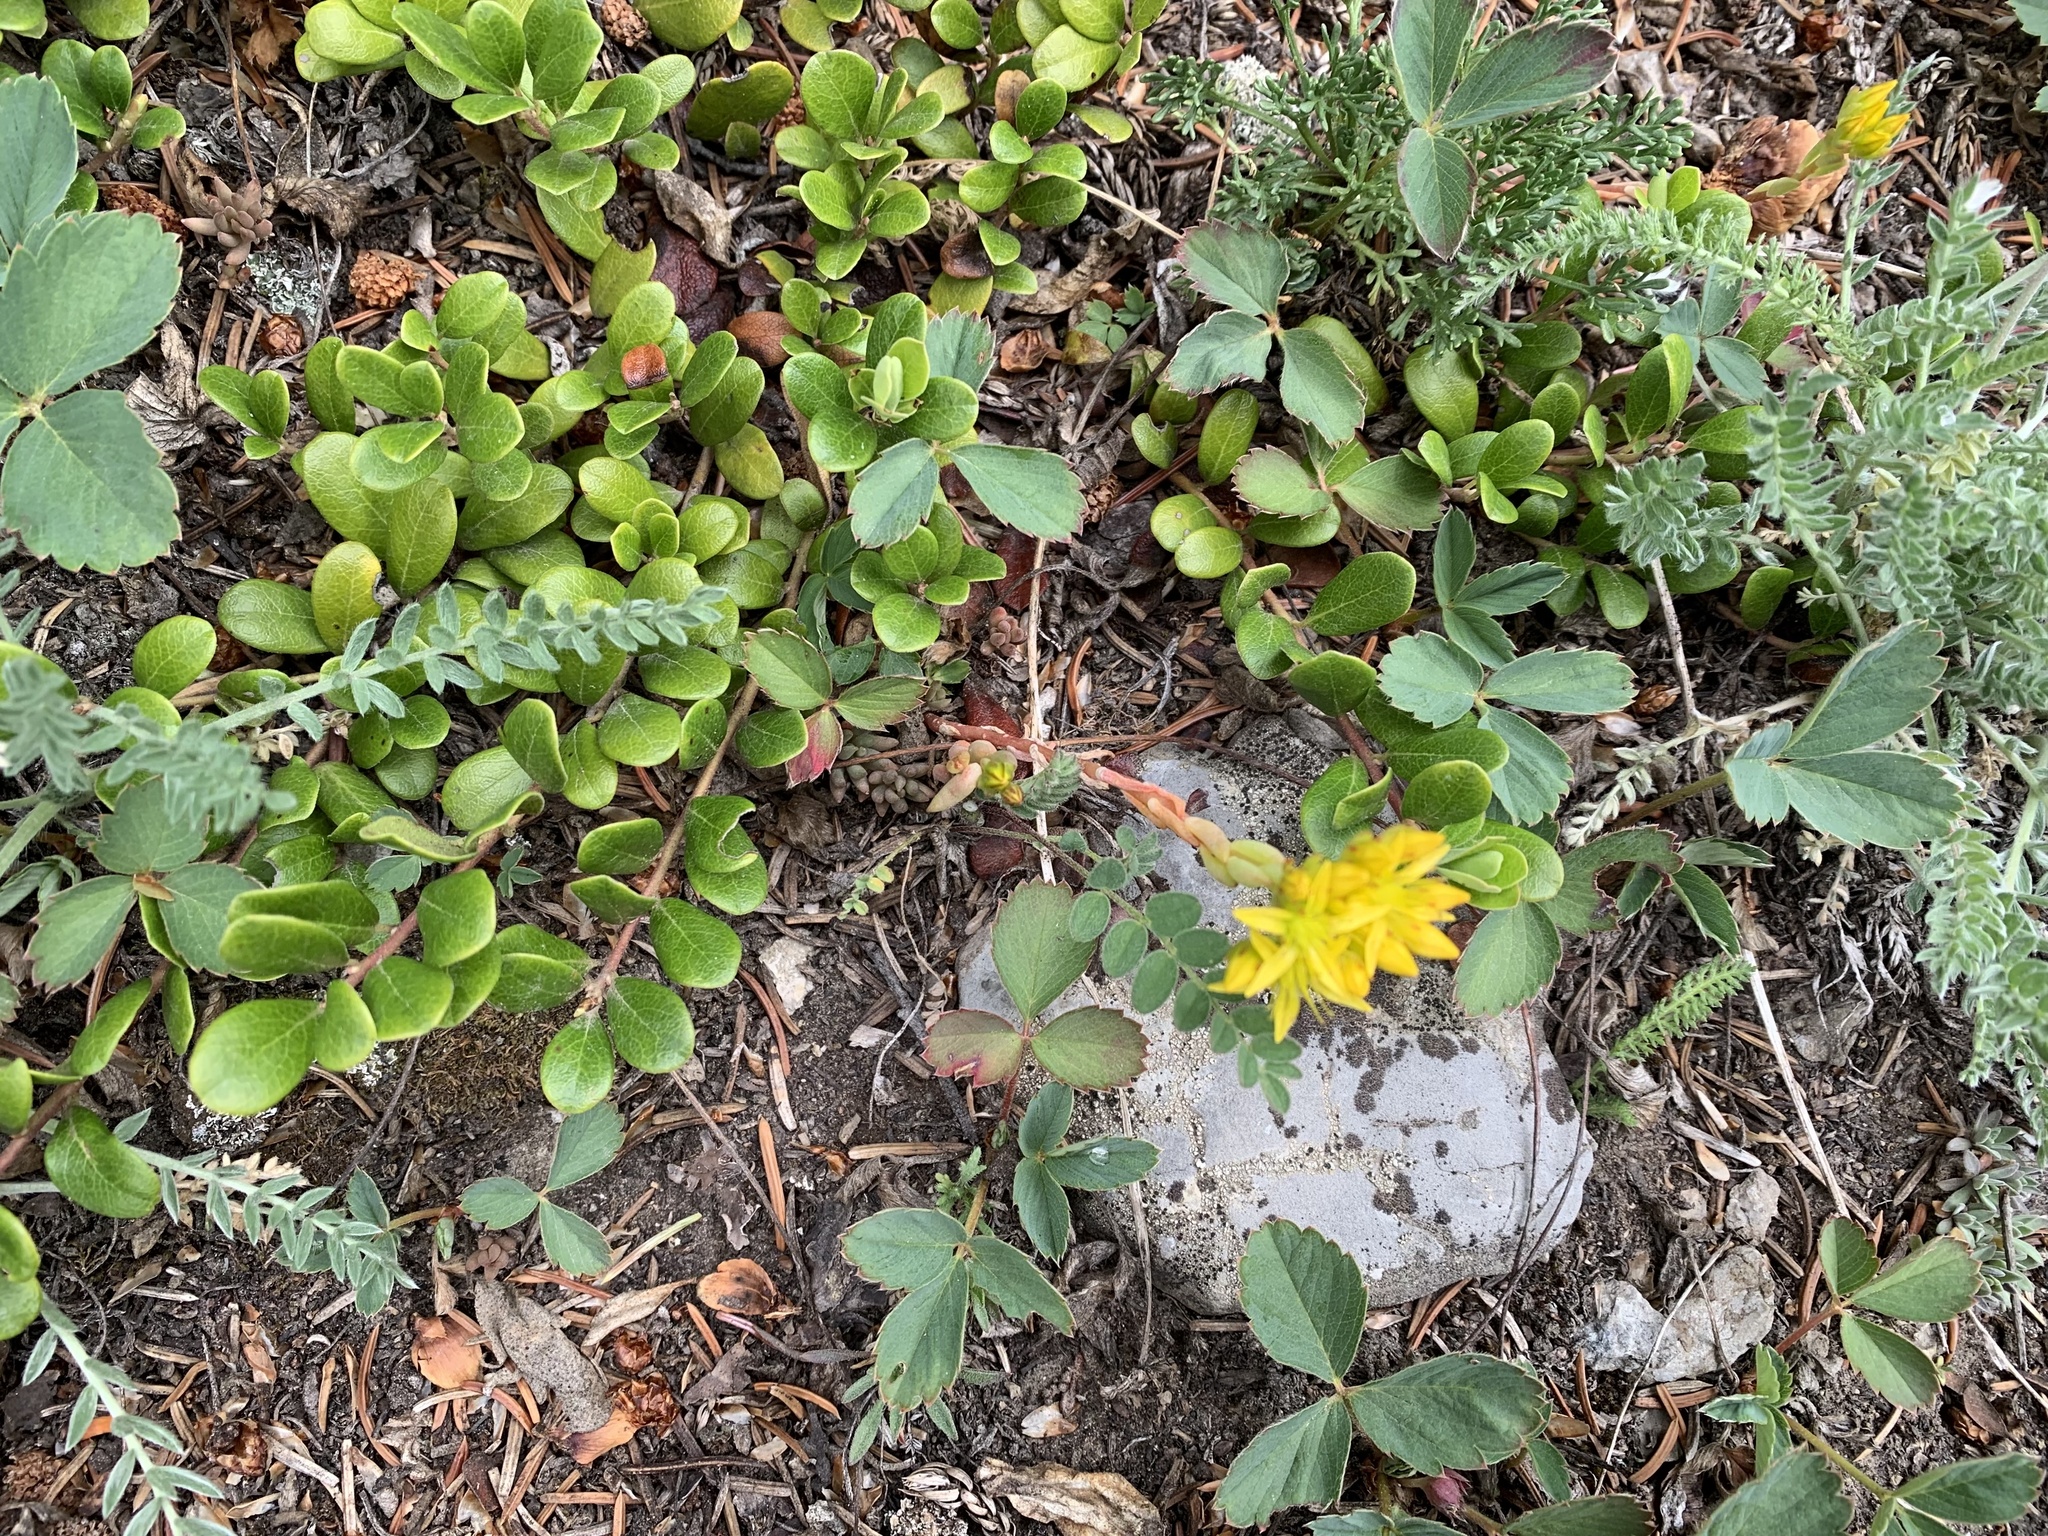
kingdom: Plantae
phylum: Tracheophyta
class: Magnoliopsida
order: Saxifragales
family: Crassulaceae
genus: Sedum
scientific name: Sedum lanceolatum
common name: Common stonecrop
